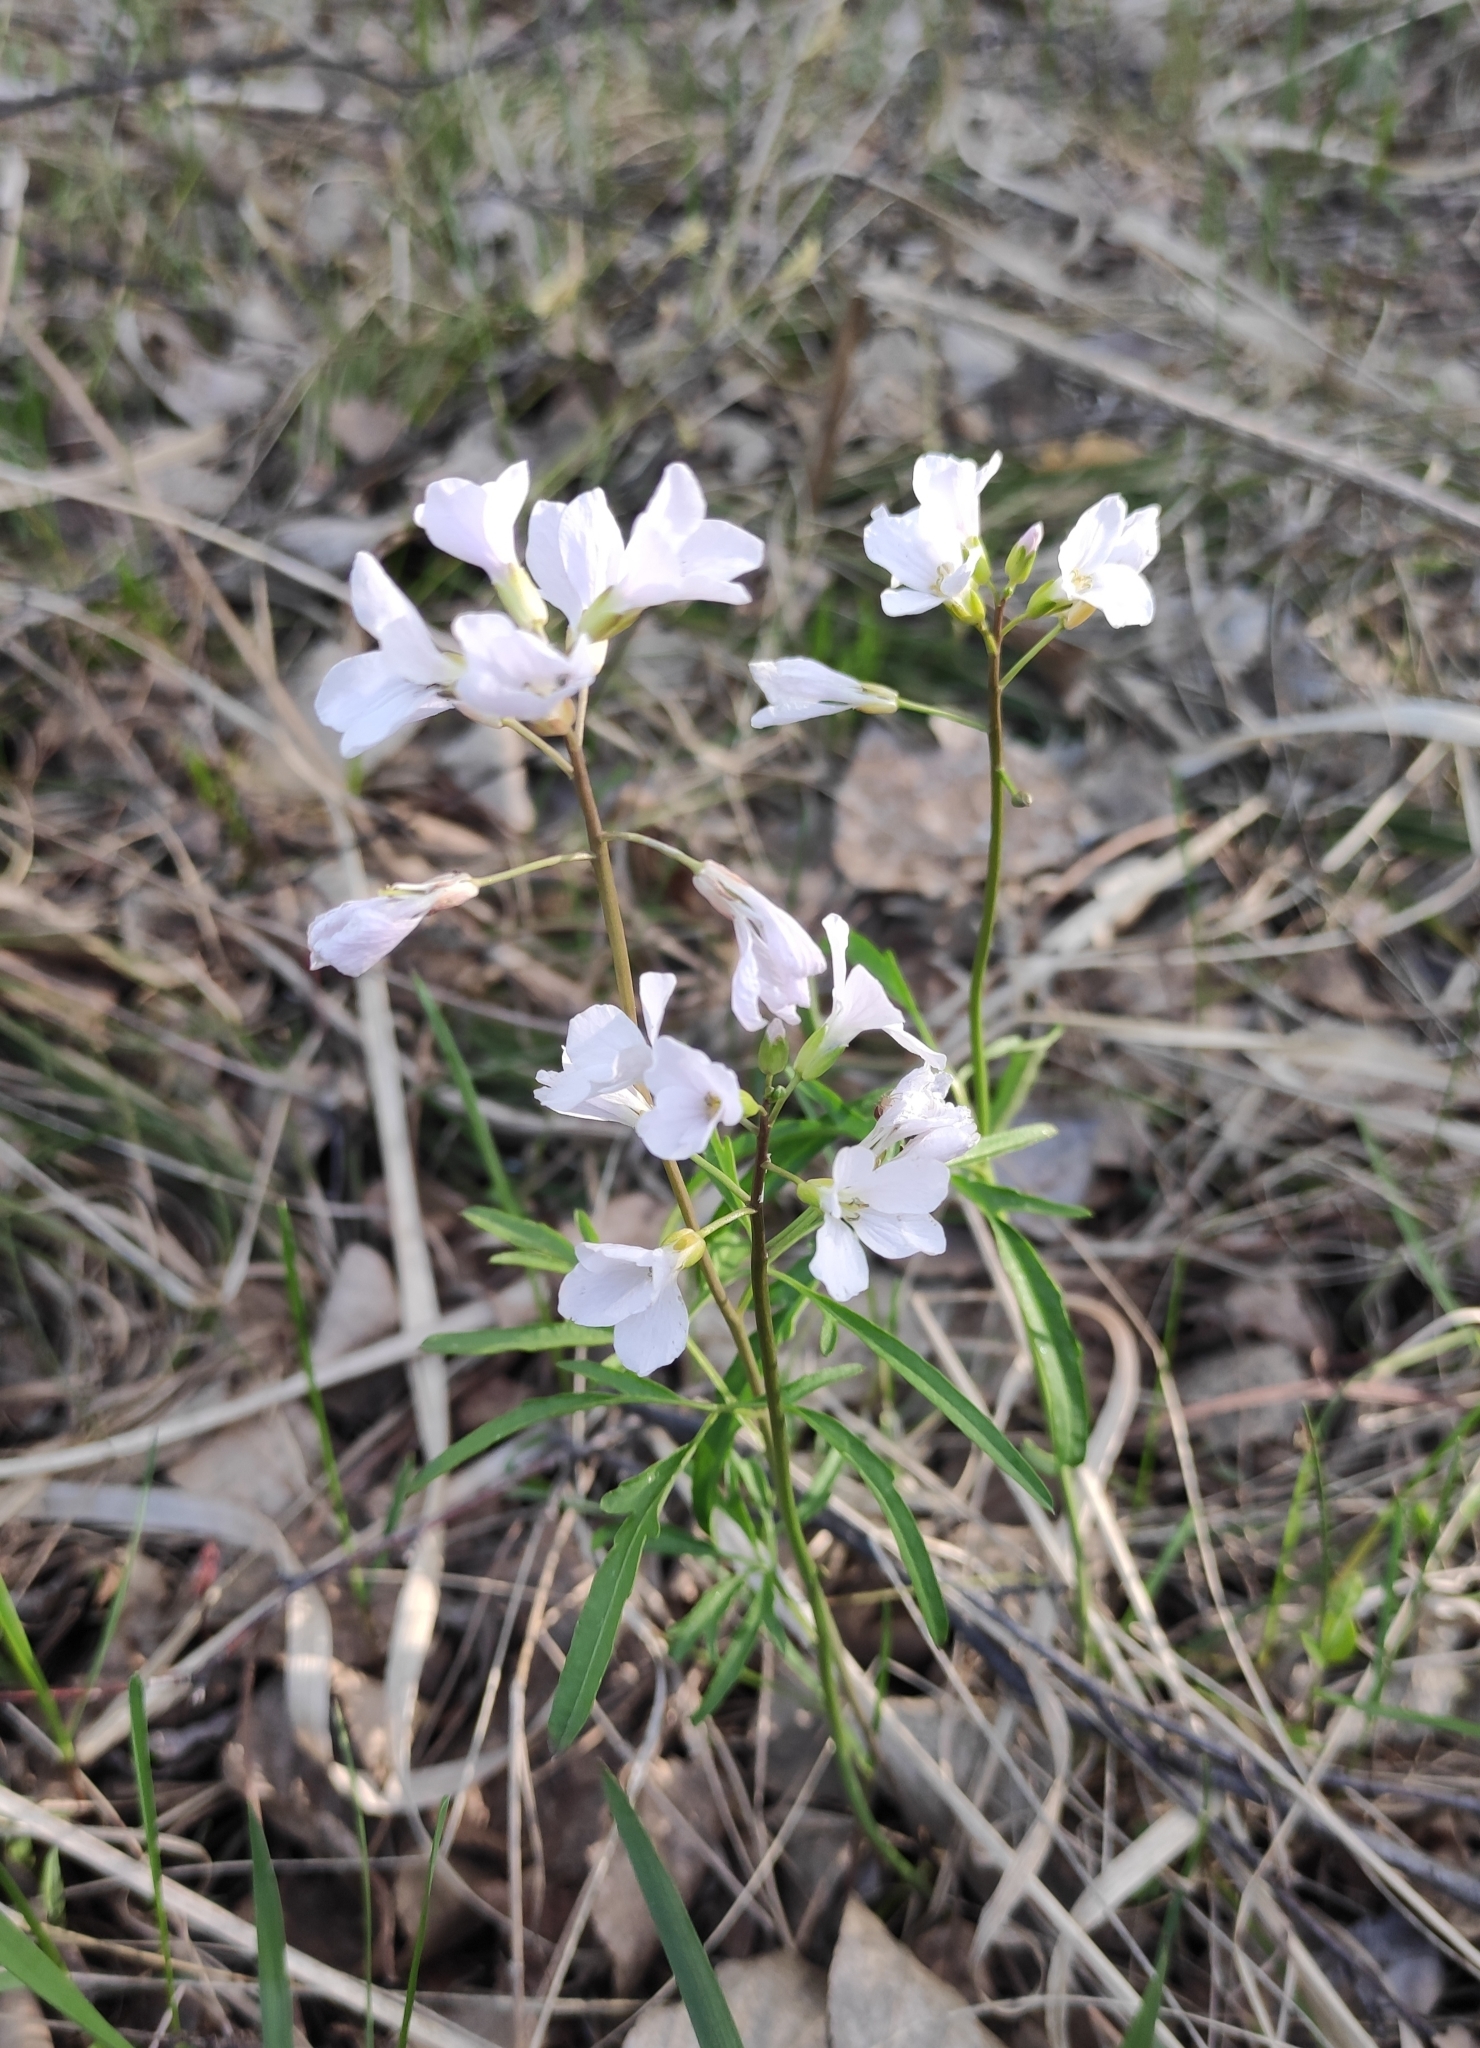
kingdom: Plantae
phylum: Tracheophyta
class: Magnoliopsida
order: Brassicales
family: Brassicaceae
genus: Cardamine
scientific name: Cardamine trifida
